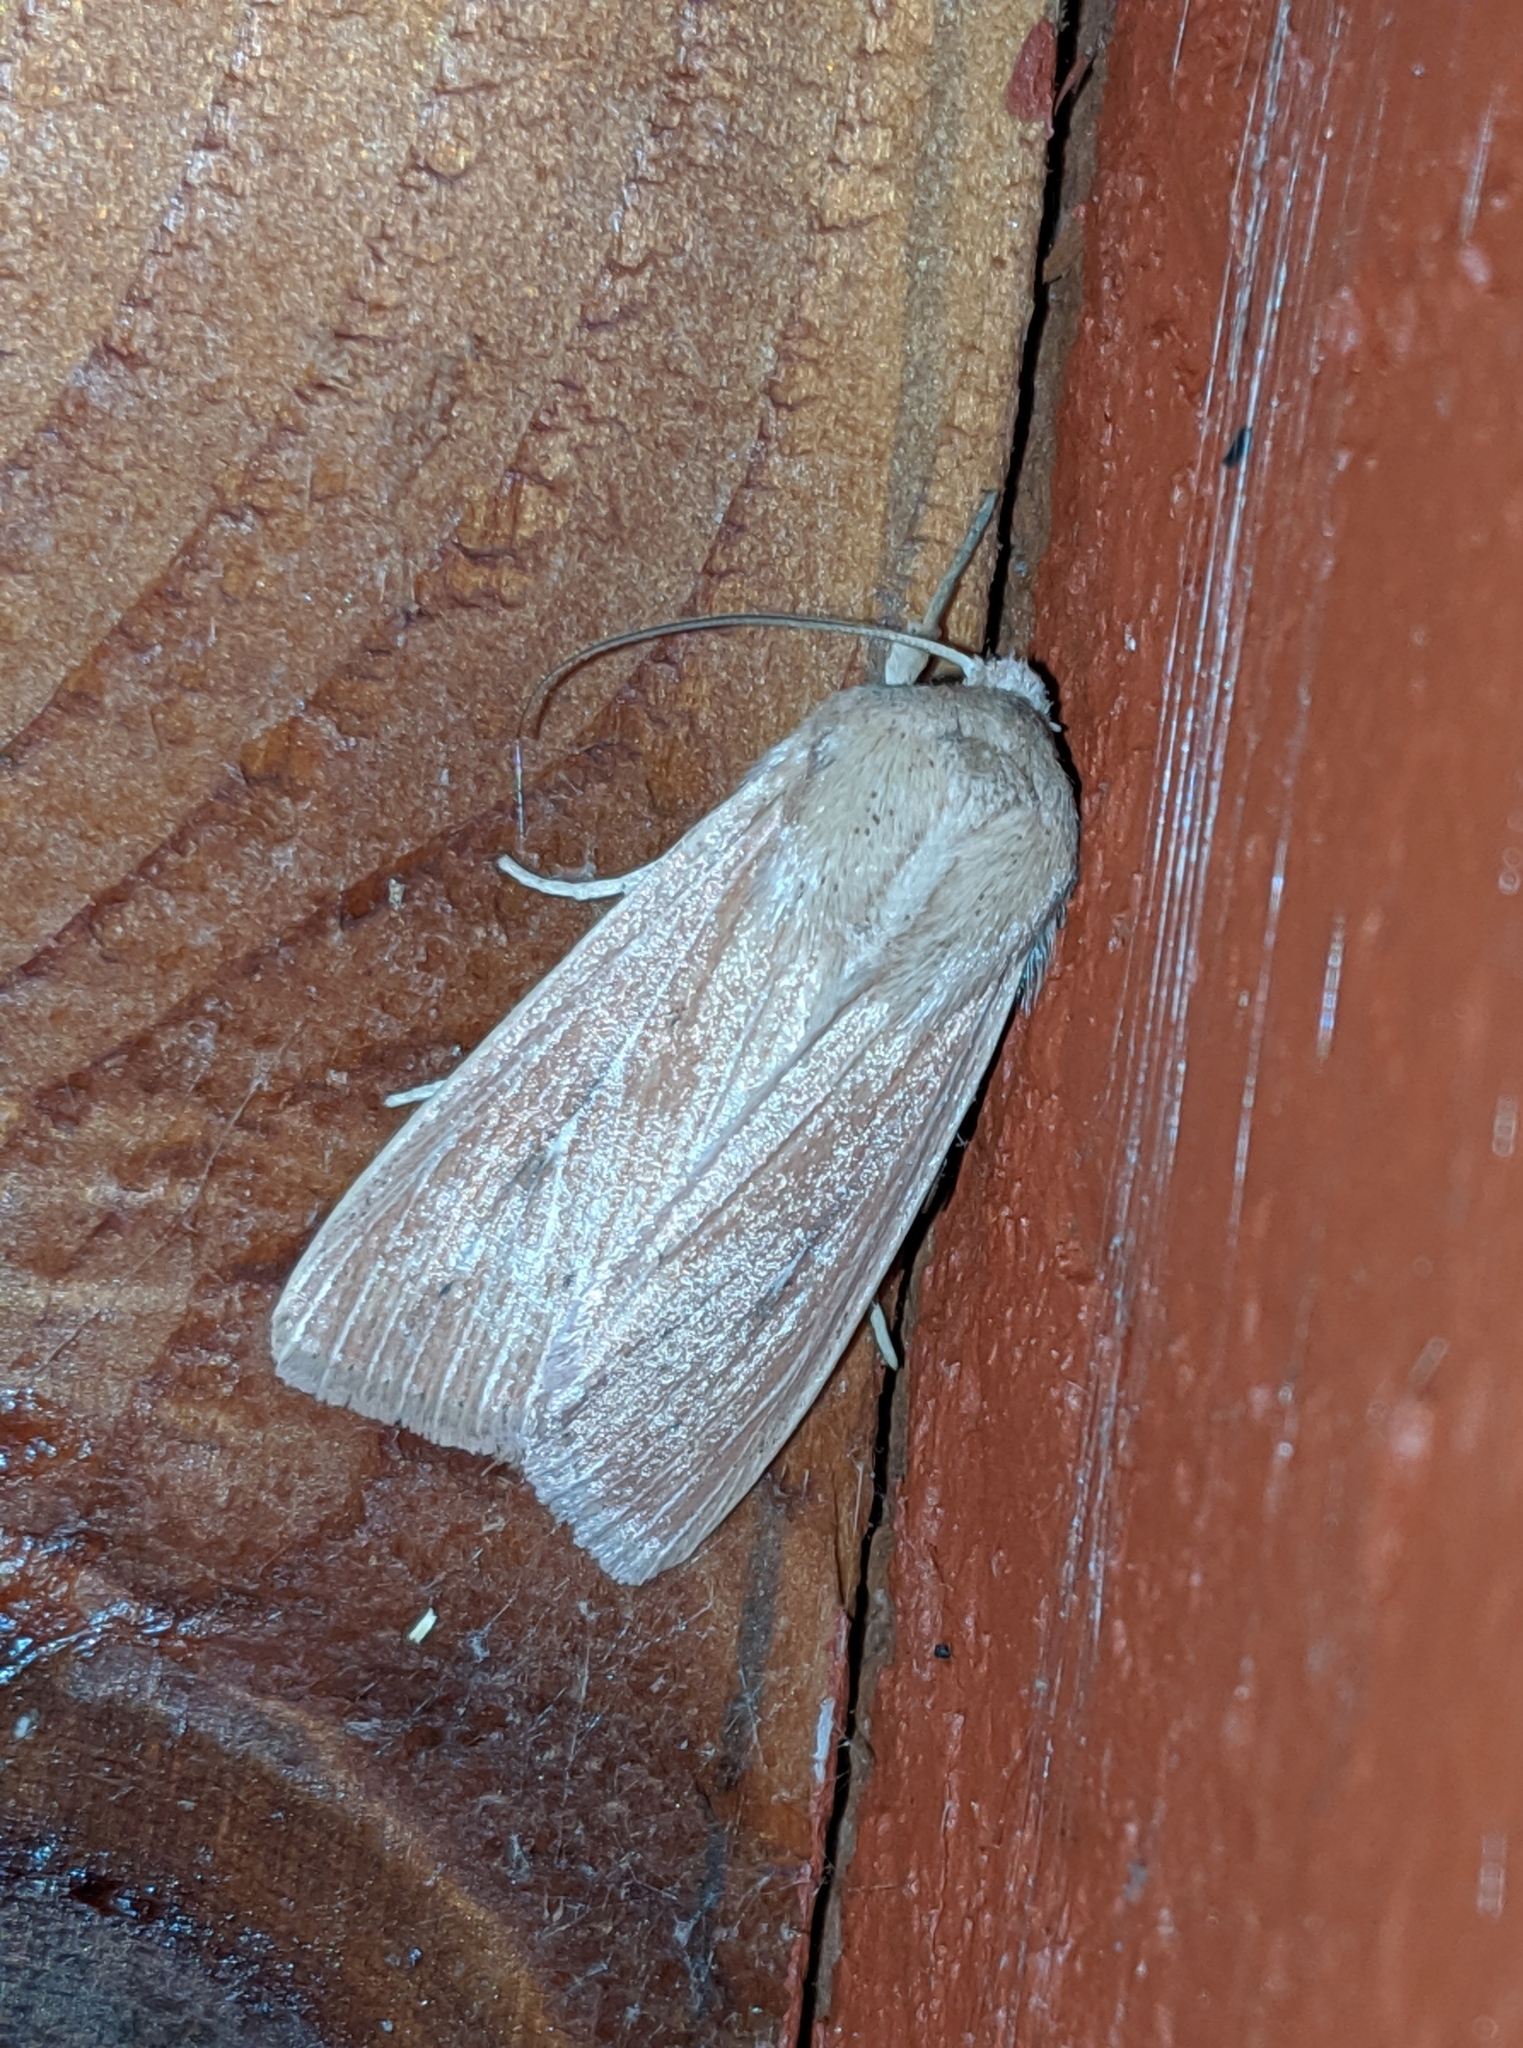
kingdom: Animalia
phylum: Arthropoda
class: Insecta
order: Lepidoptera
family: Noctuidae
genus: Leucania
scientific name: Leucania farcta
